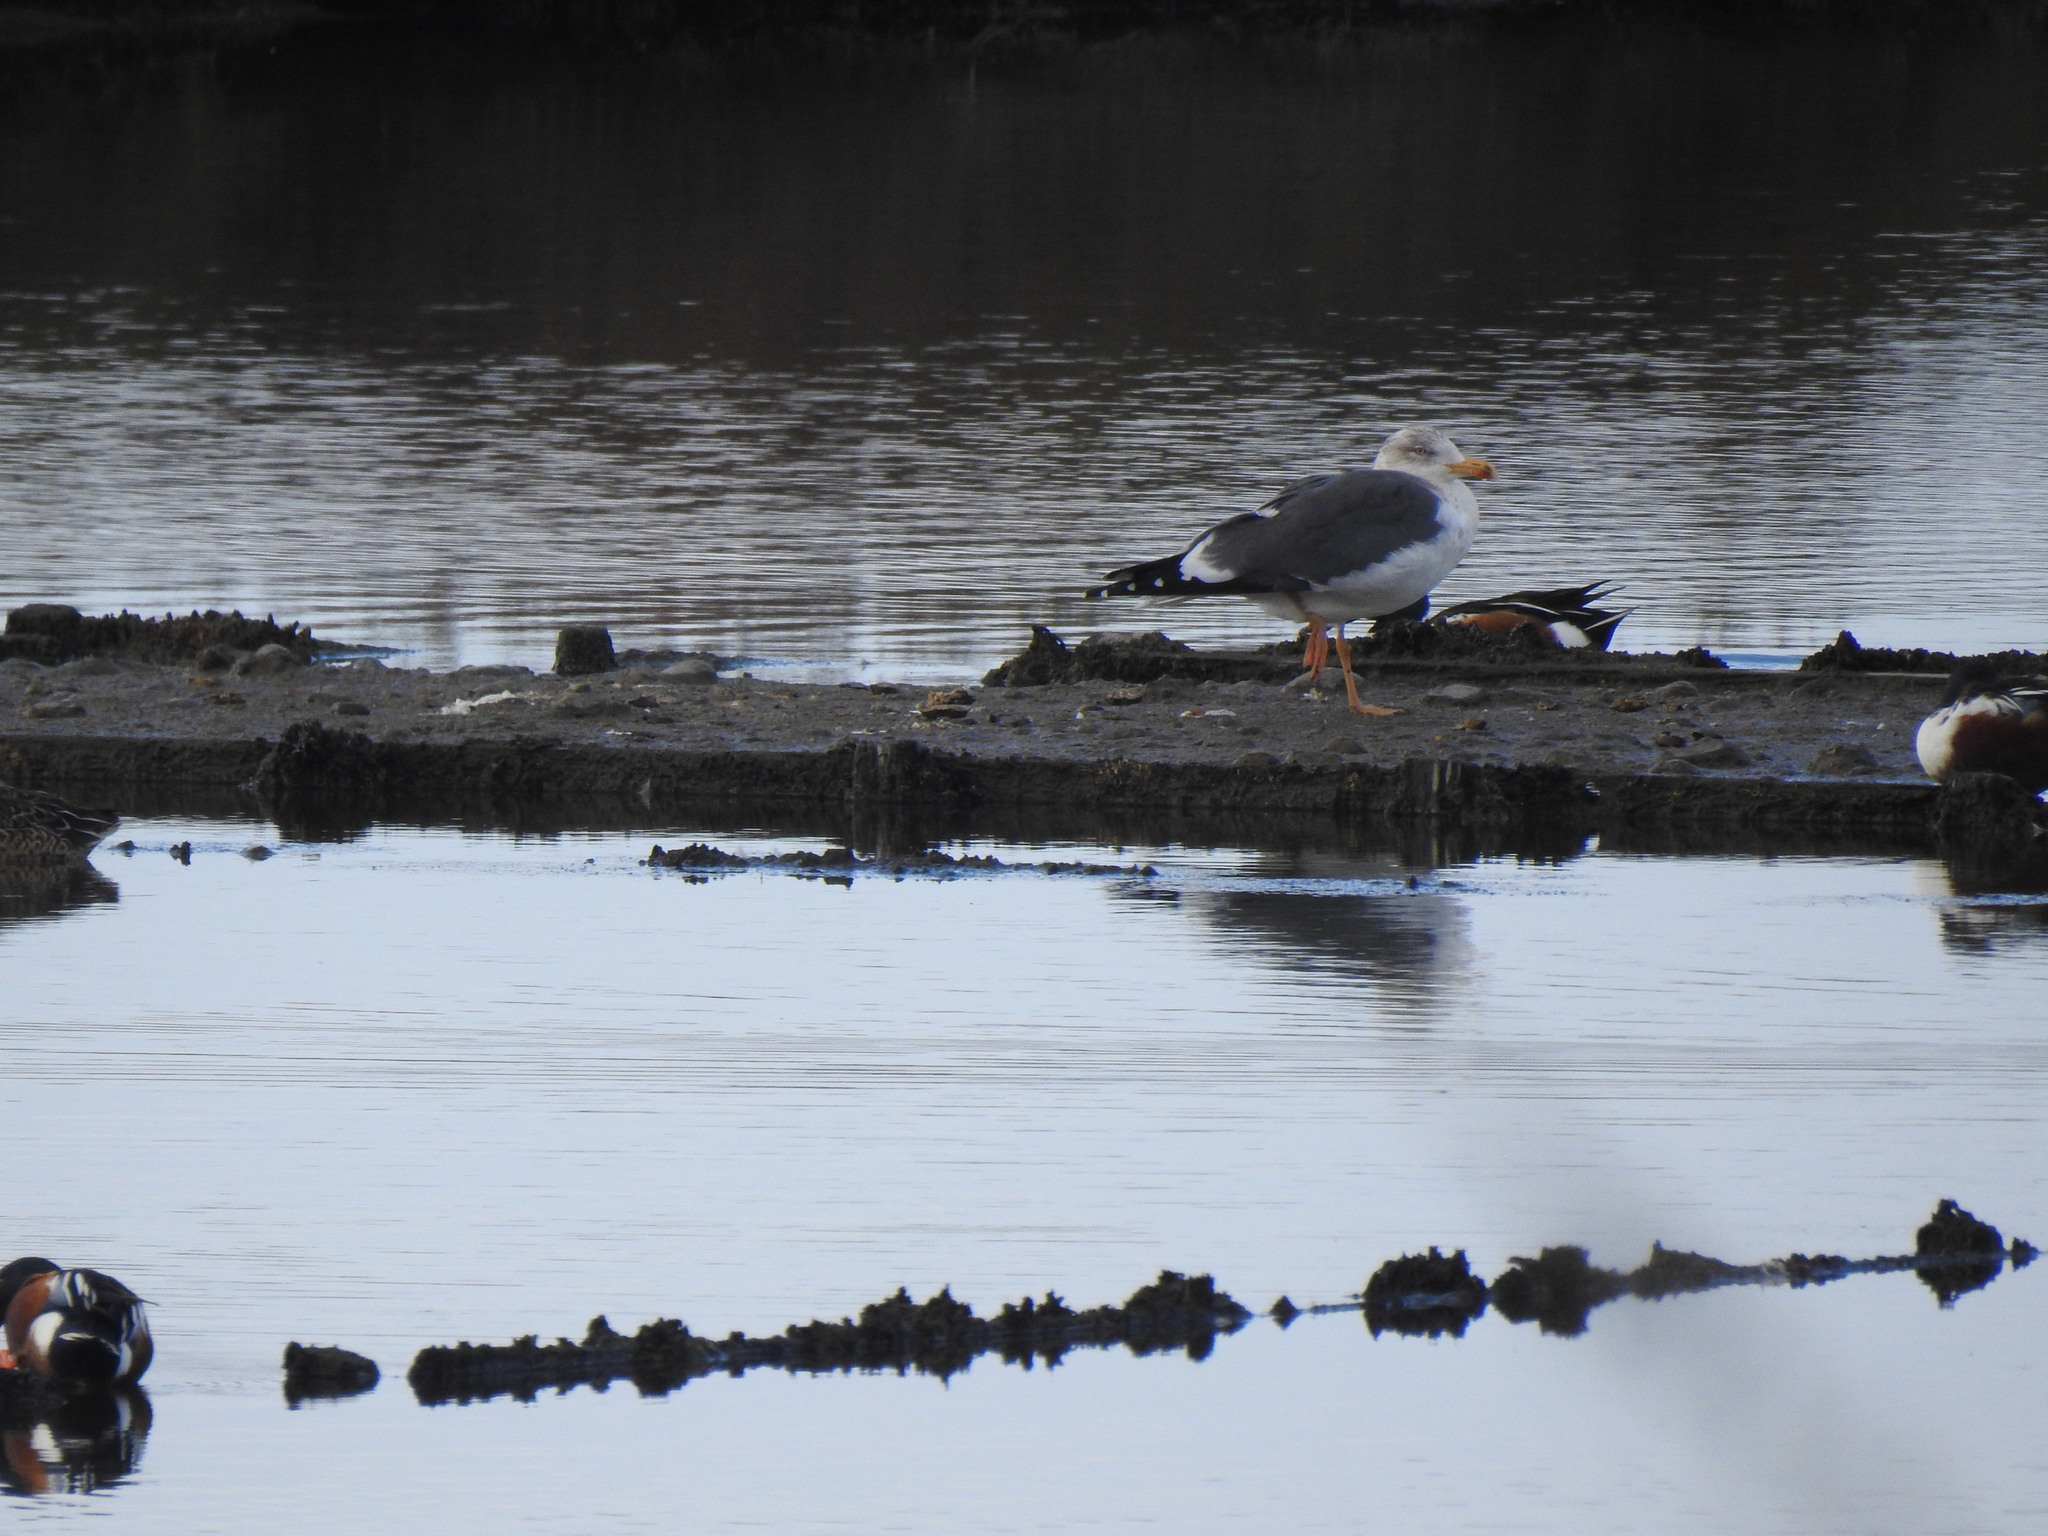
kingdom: Animalia
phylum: Chordata
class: Aves
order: Charadriiformes
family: Laridae
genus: Larus
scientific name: Larus fuscus
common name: Lesser black-backed gull
